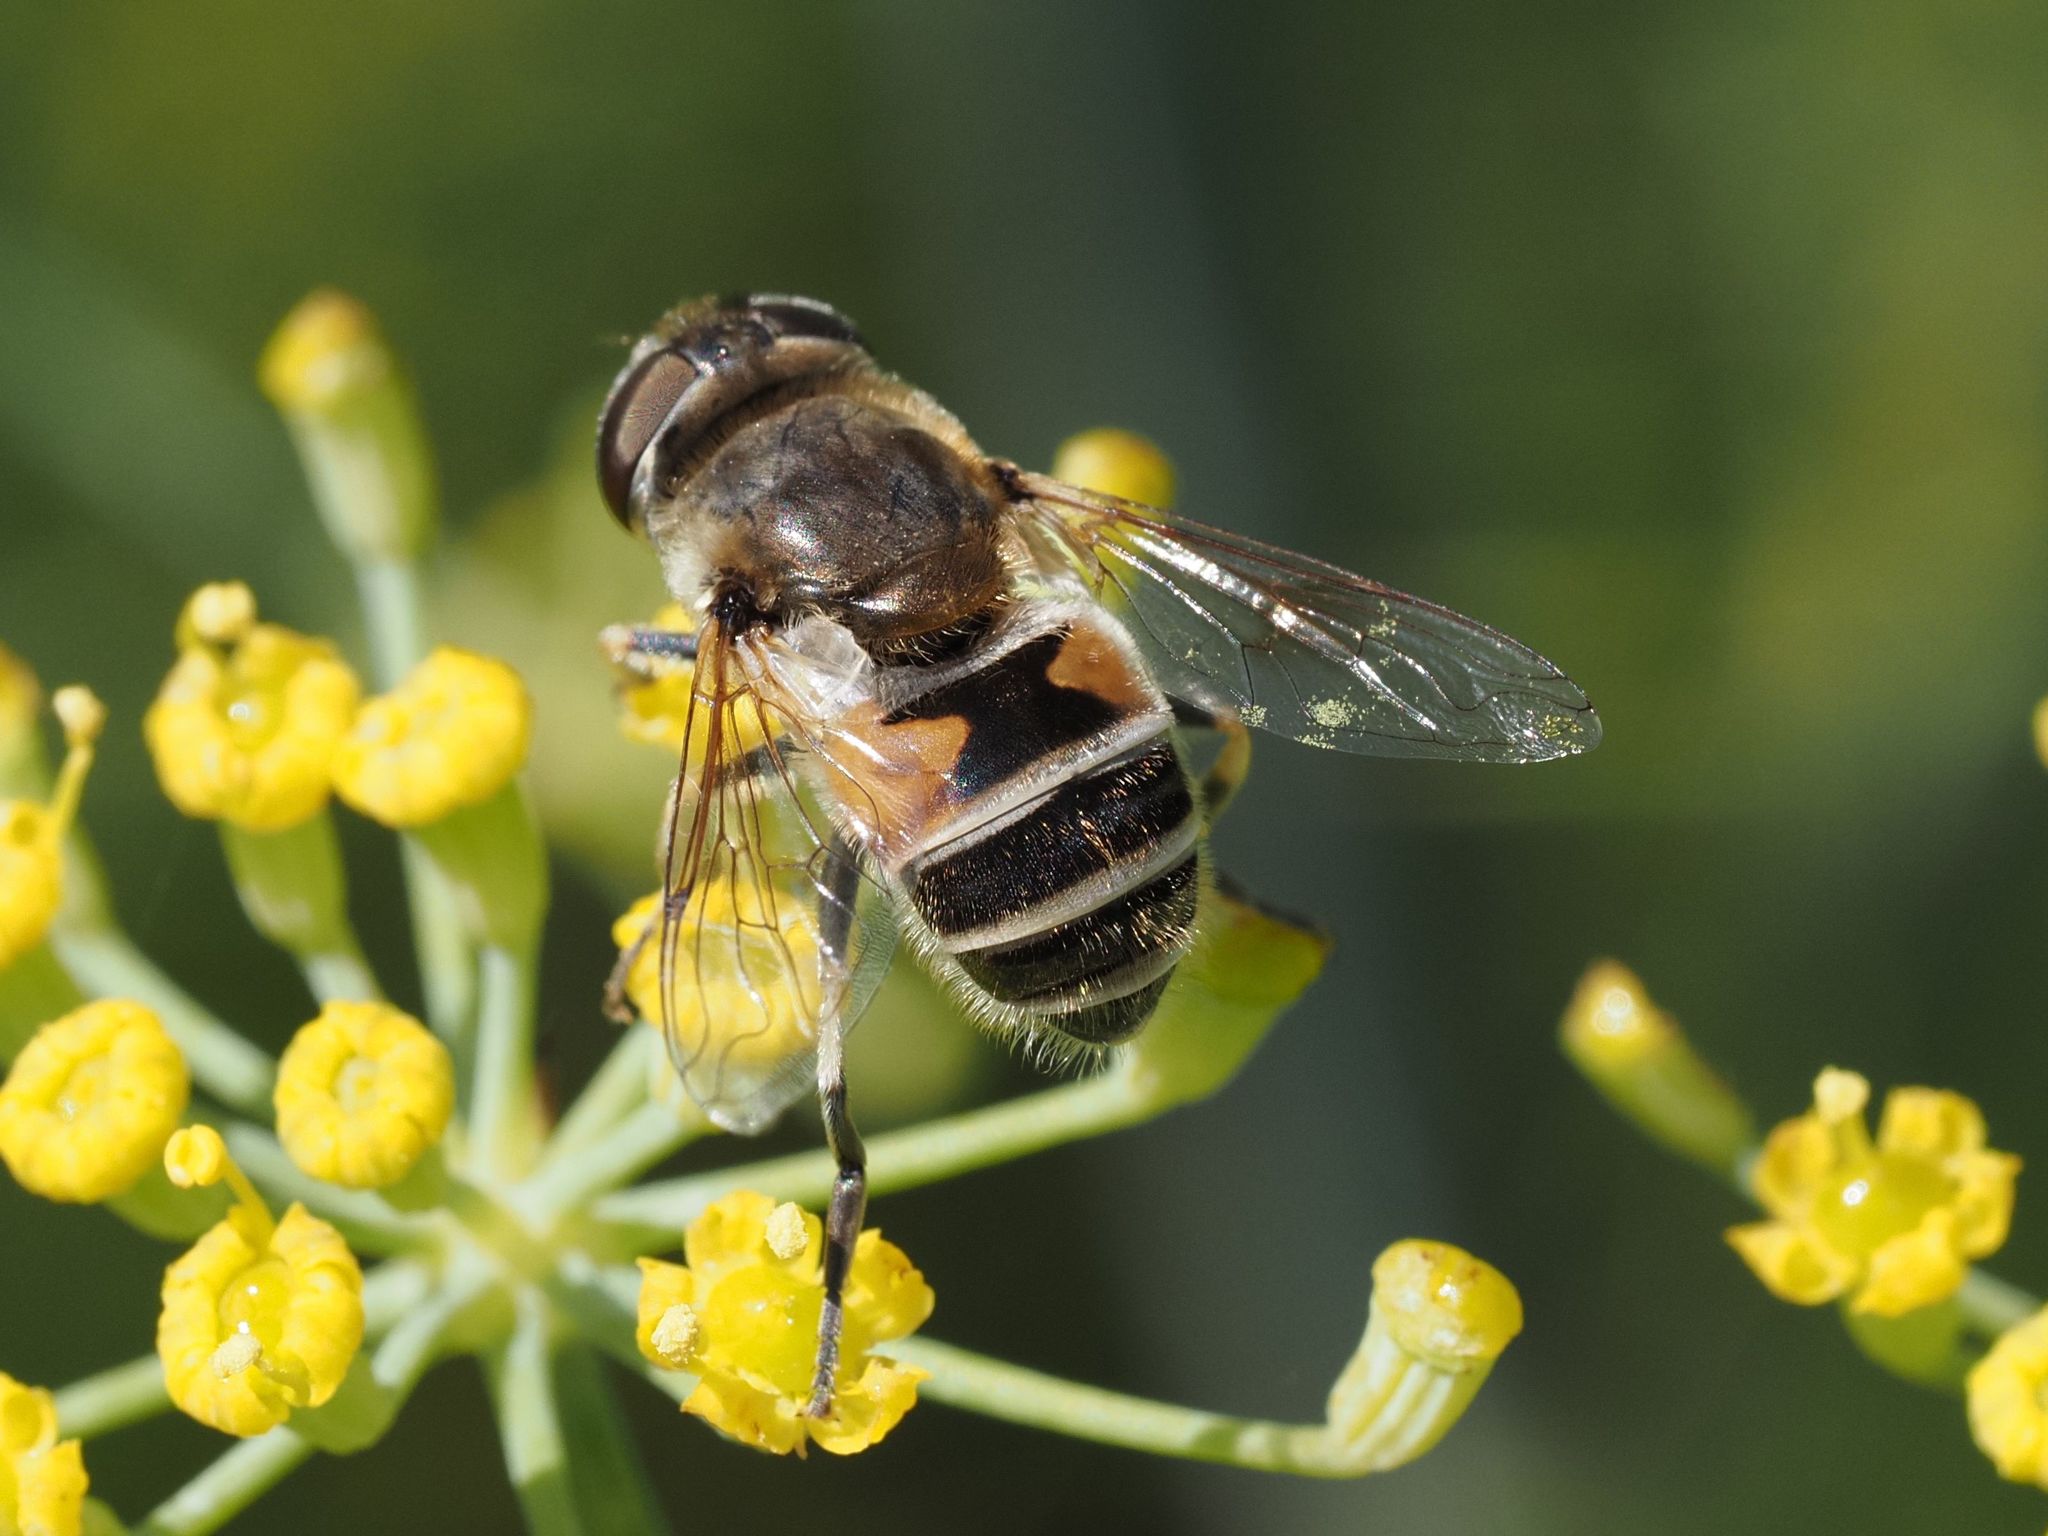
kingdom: Animalia
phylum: Arthropoda
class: Insecta
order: Diptera
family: Syrphidae
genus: Eristalis
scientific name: Eristalis arbustorum
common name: Hover fly
